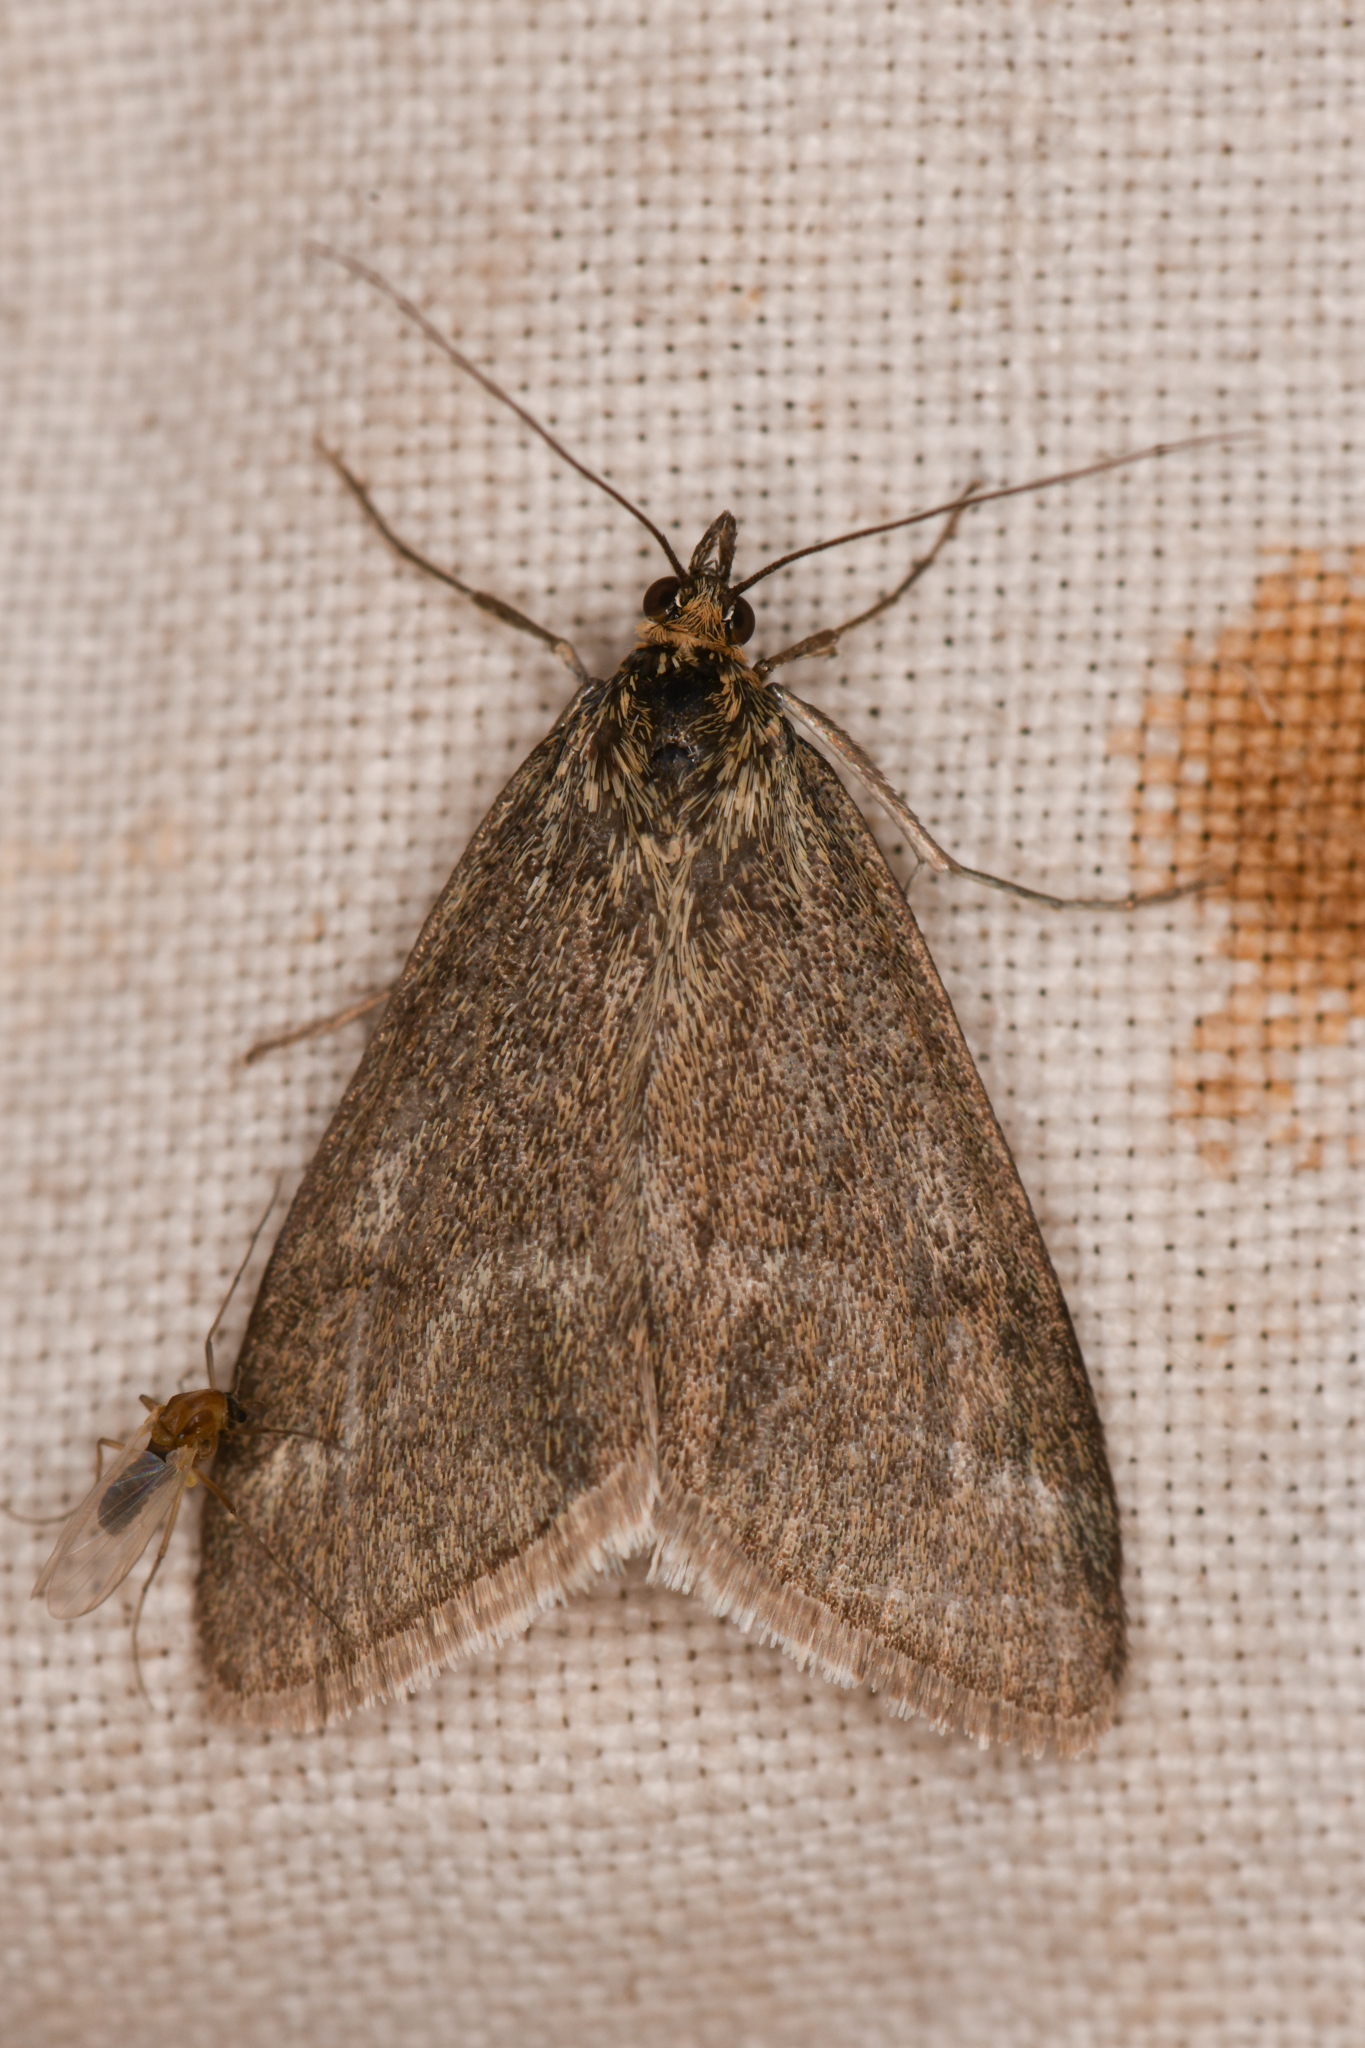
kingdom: Animalia
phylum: Arthropoda
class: Insecta
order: Lepidoptera
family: Crambidae
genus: Pyrausta
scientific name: Pyrausta unifascialis
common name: One-banded pyrausta
